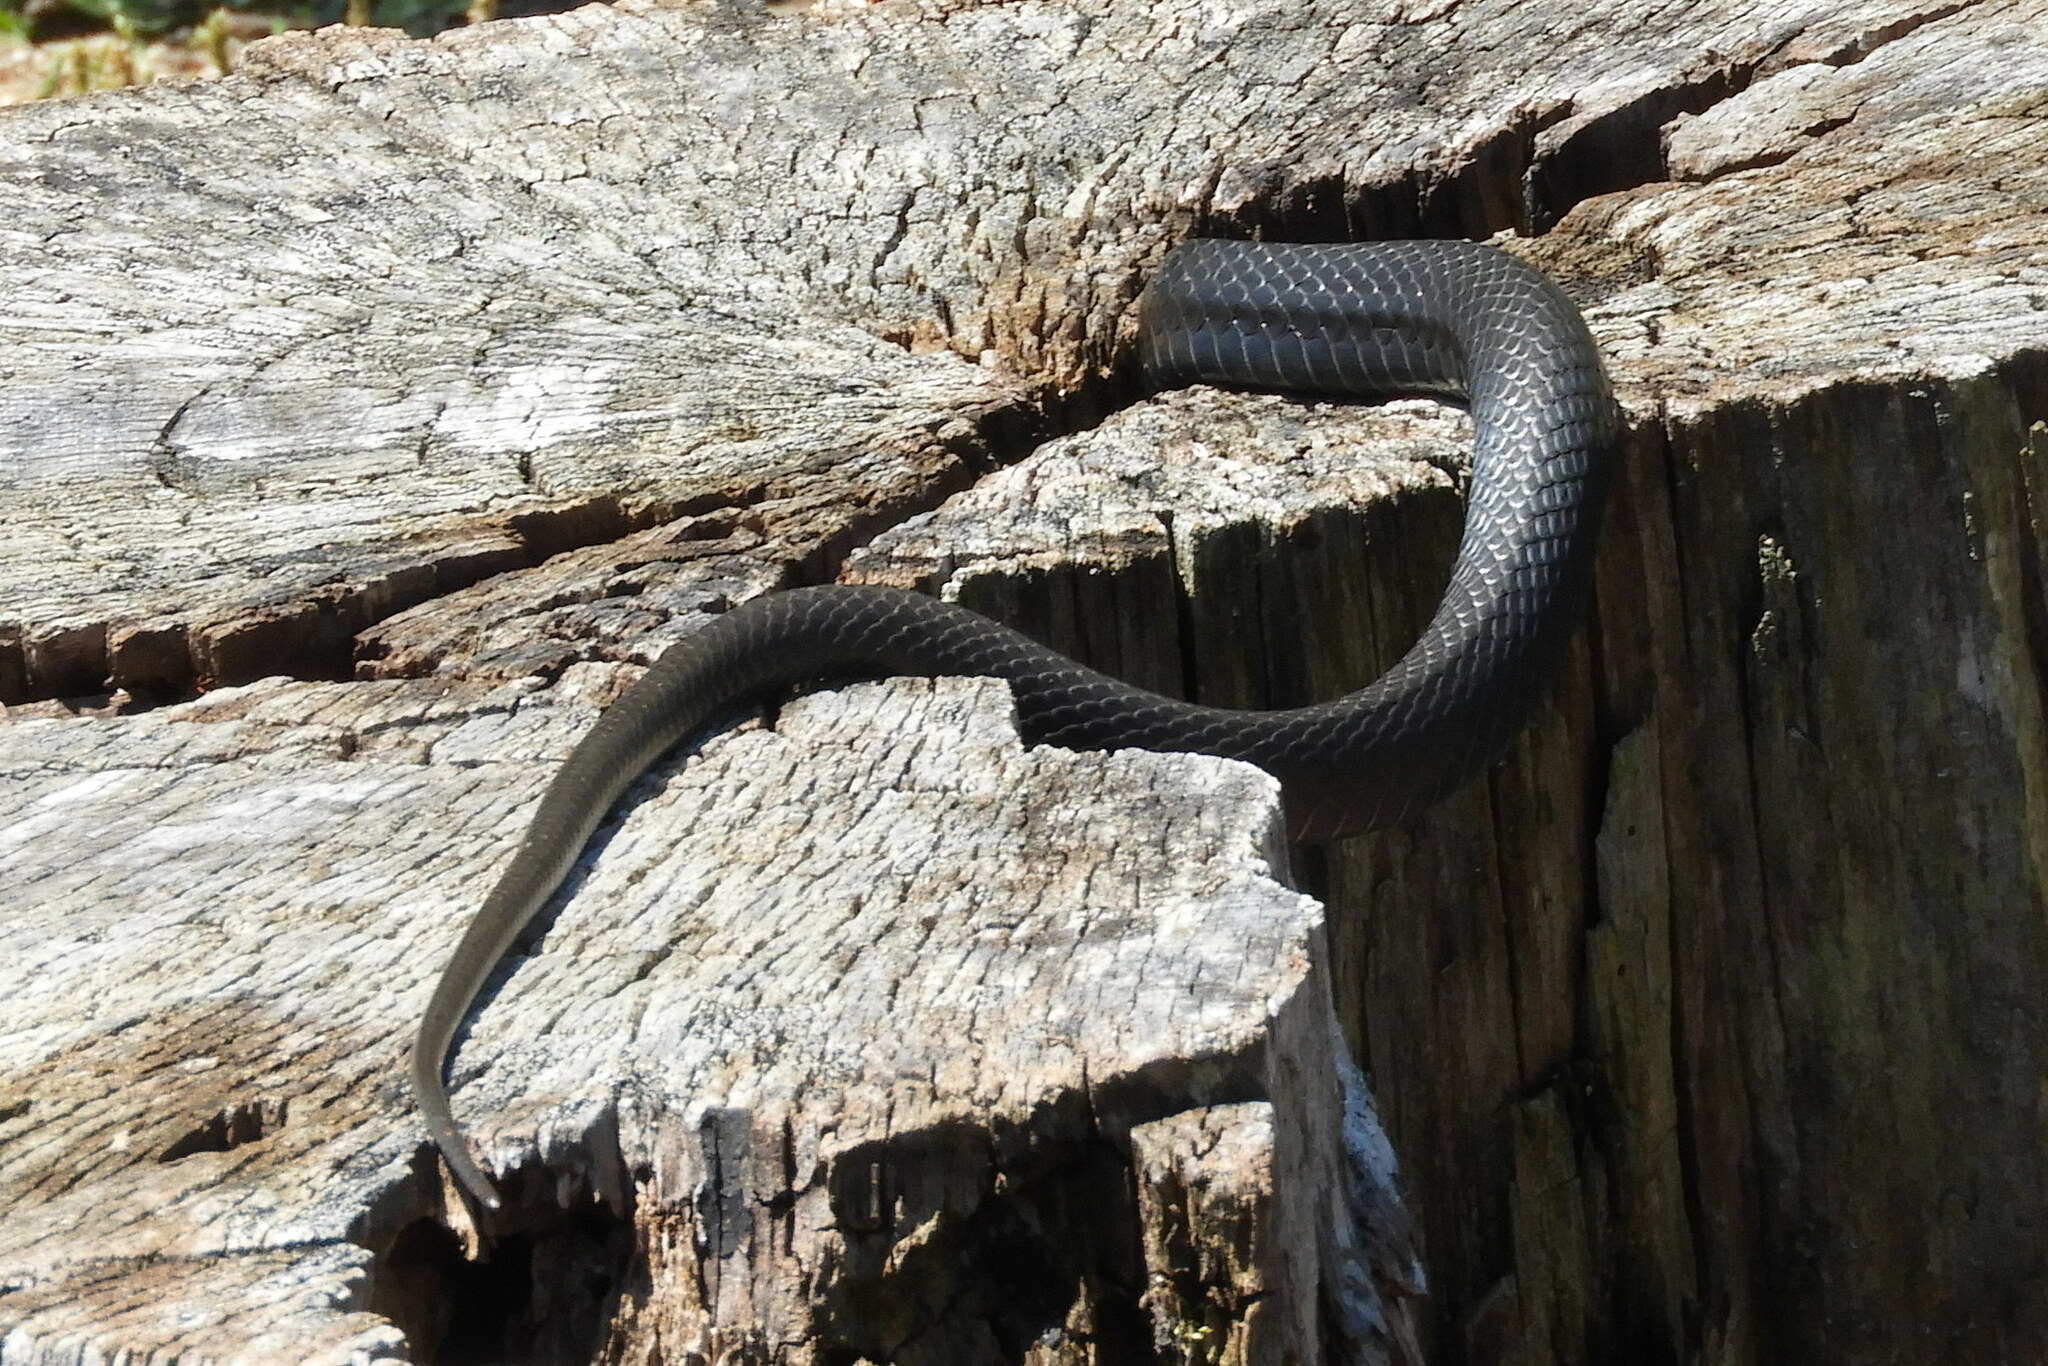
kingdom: Animalia
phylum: Chordata
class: Squamata
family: Colubridae
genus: Coluber
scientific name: Coluber constrictor
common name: Eastern racer
